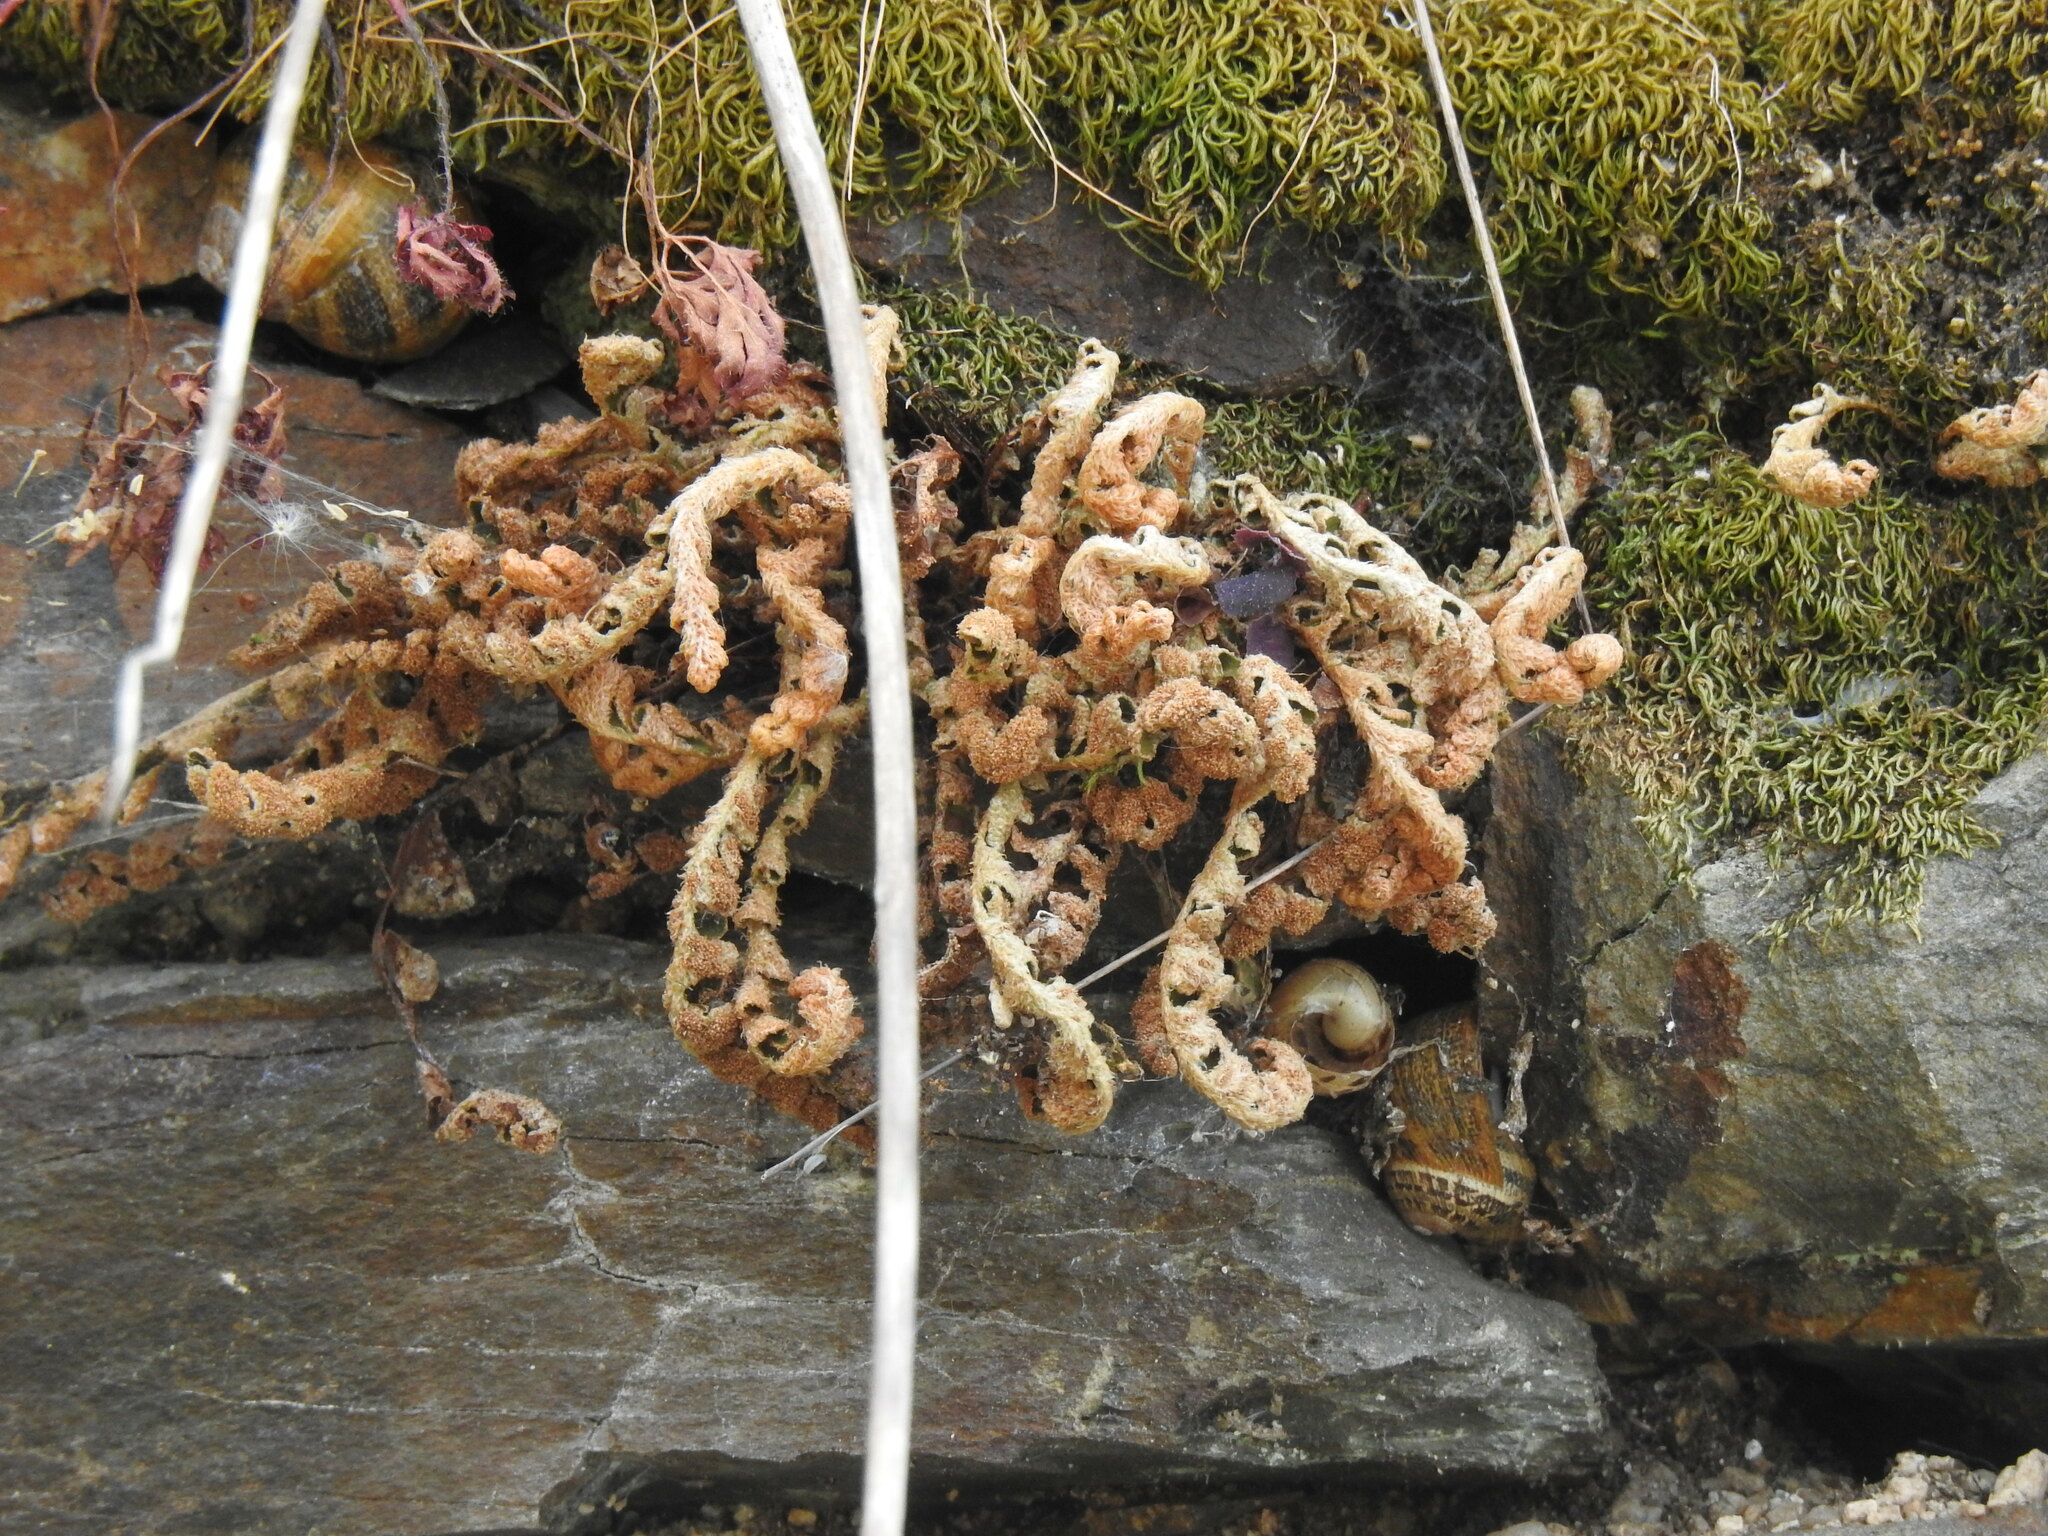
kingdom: Plantae
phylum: Tracheophyta
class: Polypodiopsida
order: Polypodiales
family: Aspleniaceae
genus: Asplenium
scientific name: Asplenium ceterach
